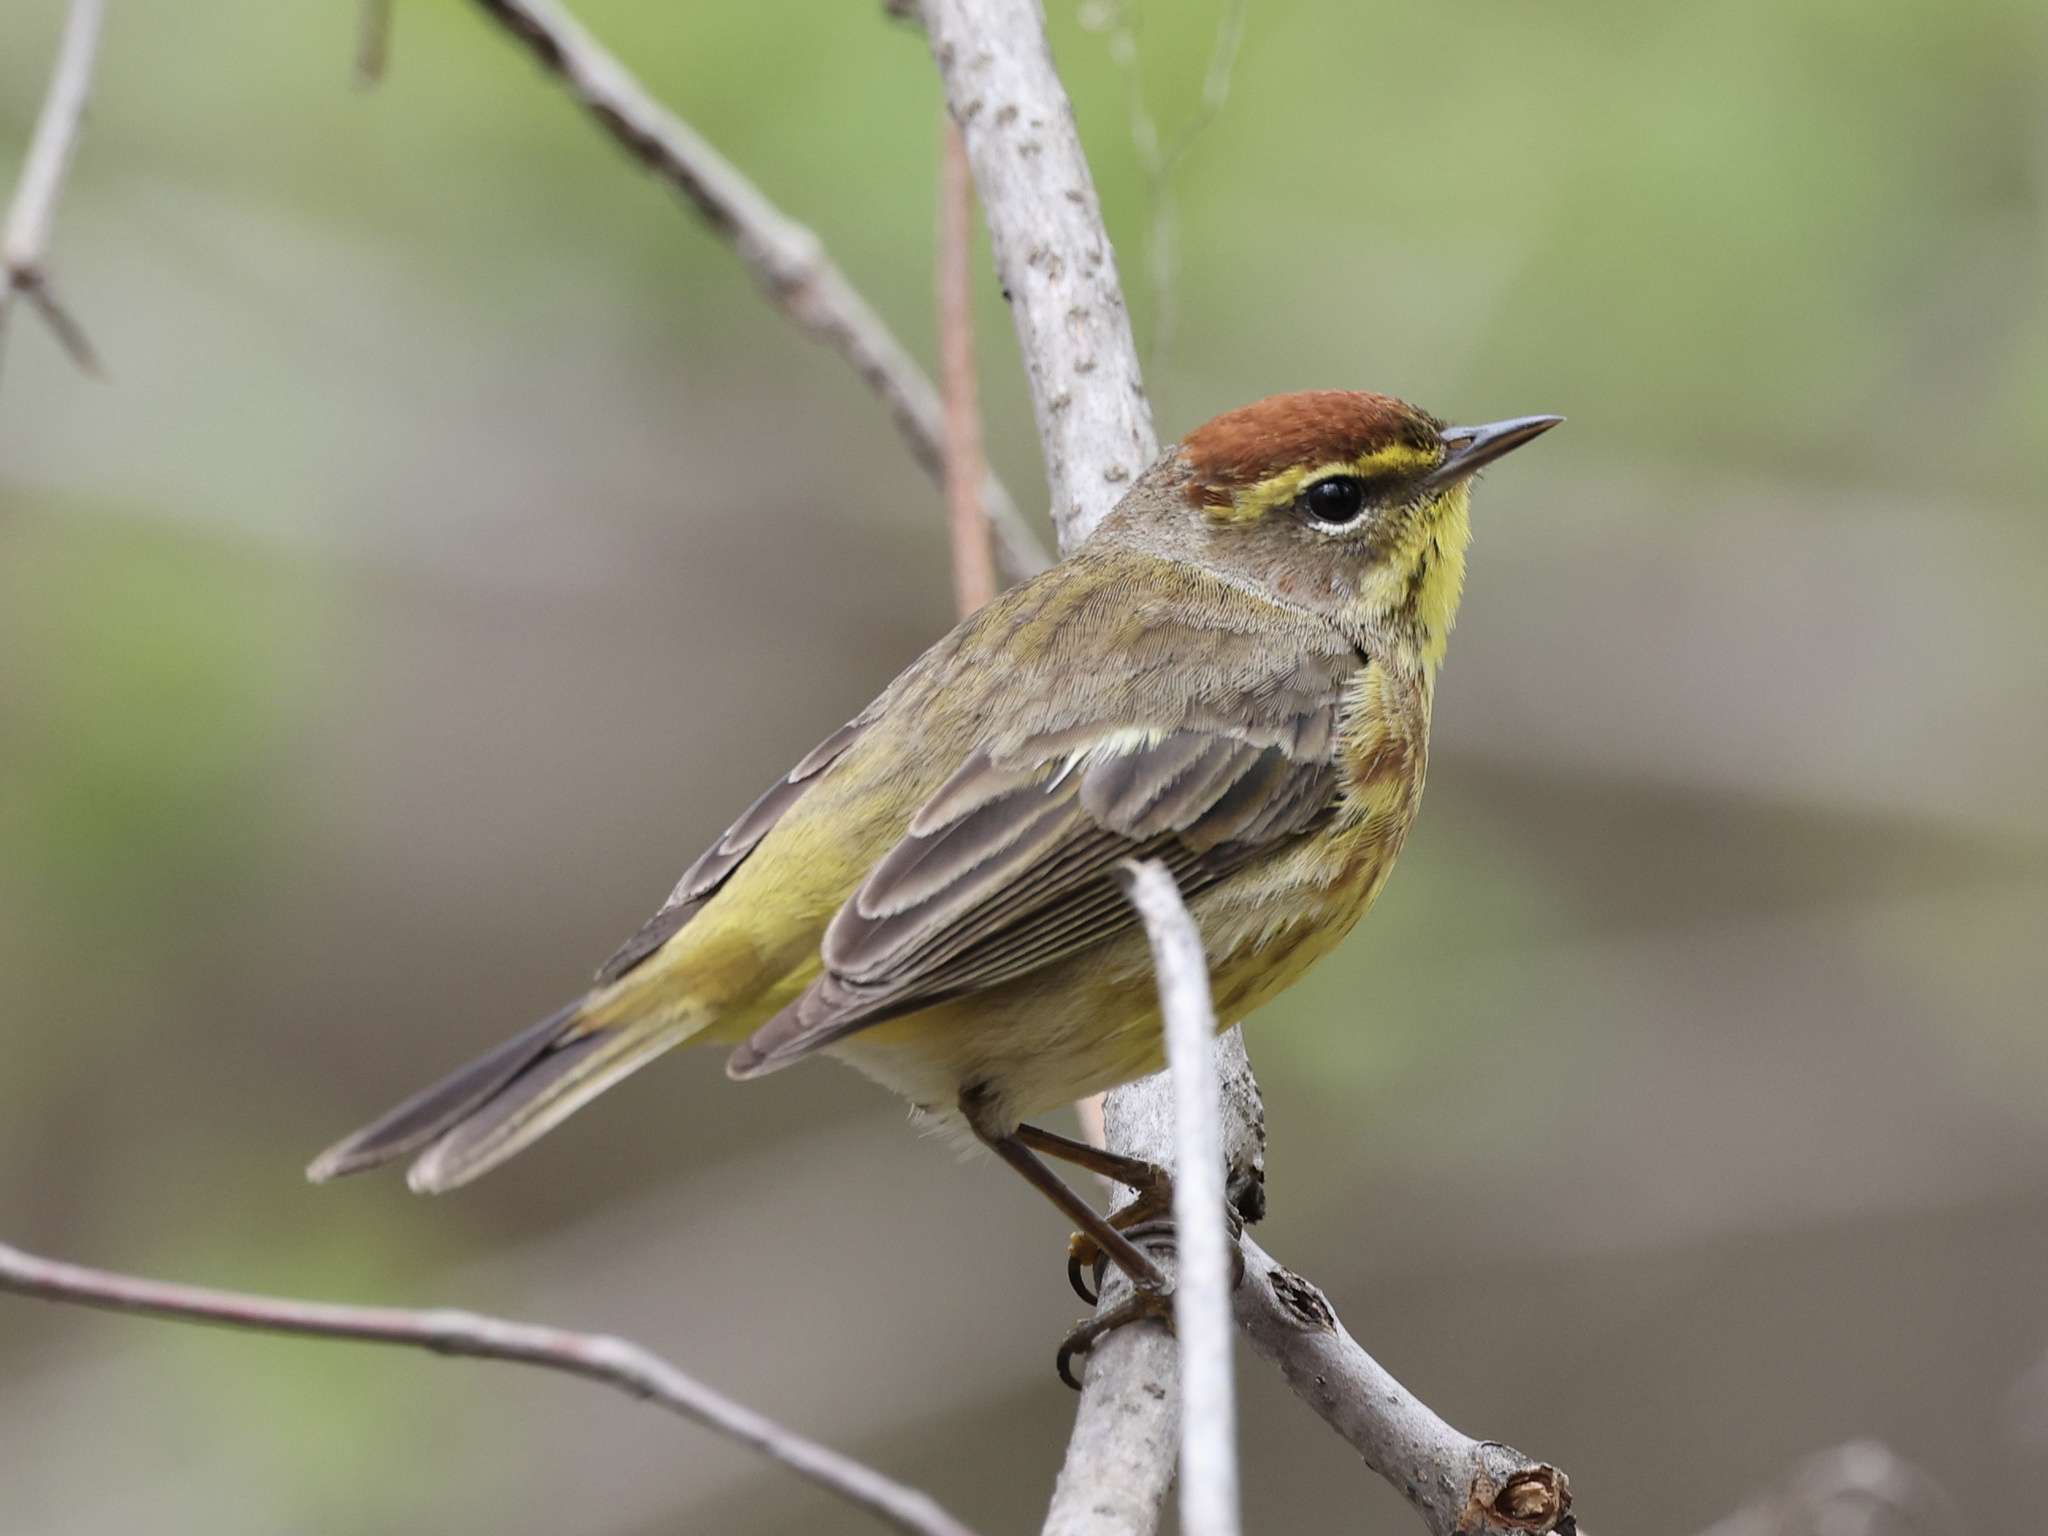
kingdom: Animalia
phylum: Chordata
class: Aves
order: Passeriformes
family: Parulidae
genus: Setophaga
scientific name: Setophaga palmarum
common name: Palm warbler
